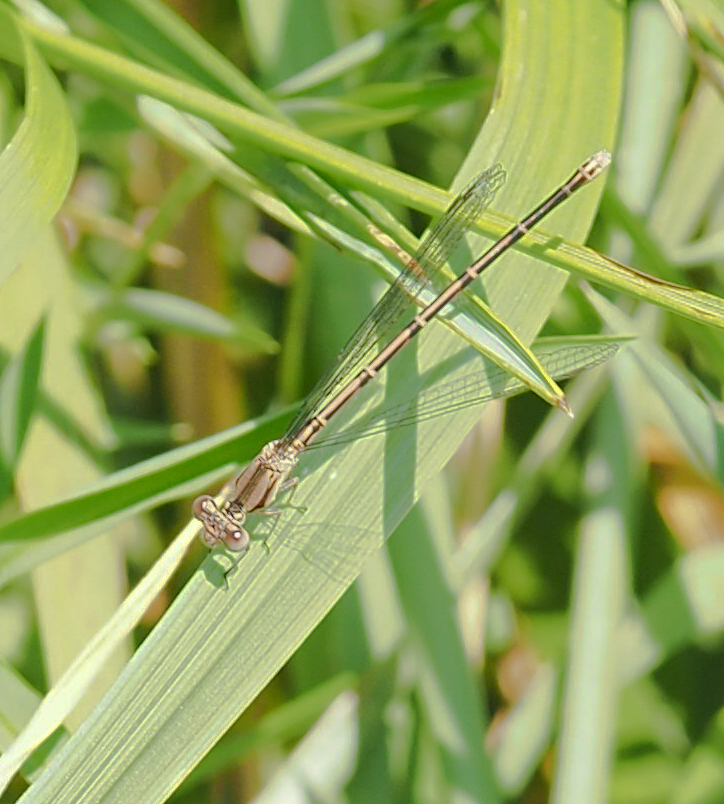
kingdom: Animalia
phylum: Arthropoda
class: Insecta
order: Odonata
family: Coenagrionidae
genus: Argia
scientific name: Argia fumipennis
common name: Variable dancer
